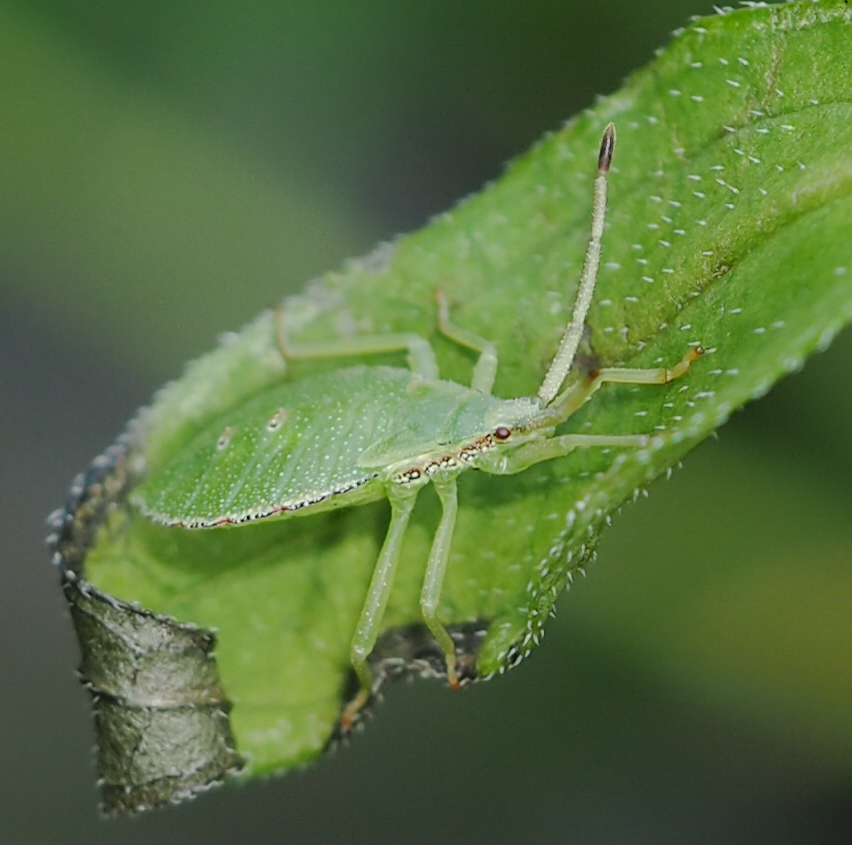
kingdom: Animalia
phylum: Arthropoda
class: Insecta
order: Hemiptera
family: Coreidae
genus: Piezogaster
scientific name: Piezogaster calcarator
